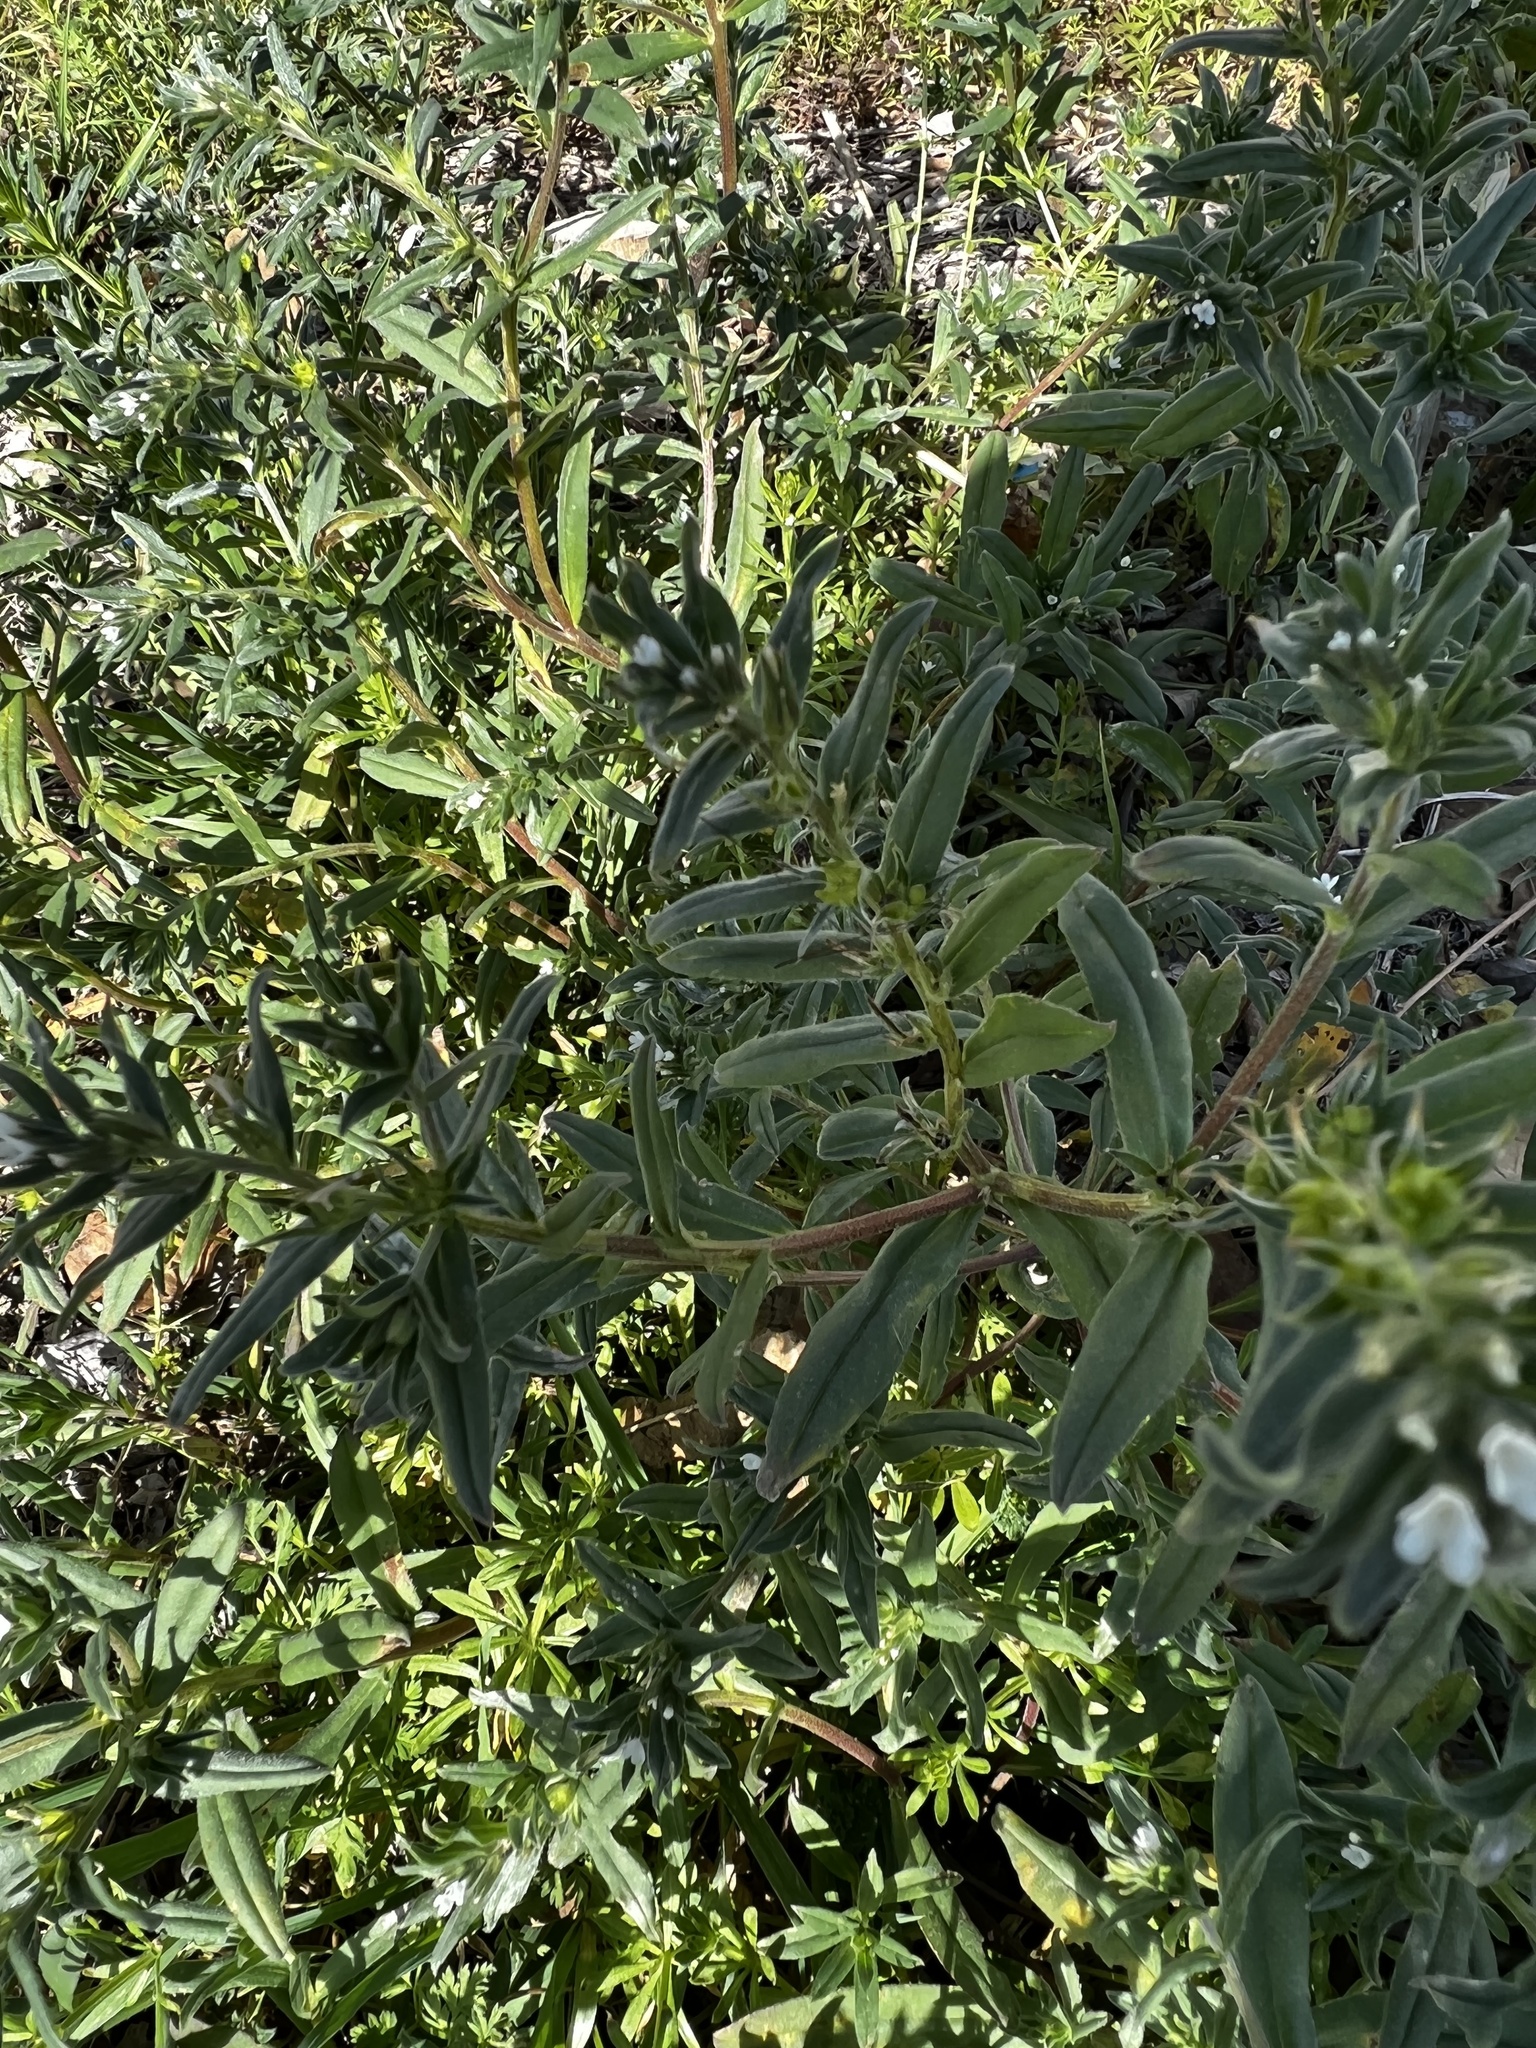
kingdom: Plantae
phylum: Tracheophyta
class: Magnoliopsida
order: Boraginales
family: Boraginaceae
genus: Buglossoides
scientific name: Buglossoides arvensis
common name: Corn gromwell
